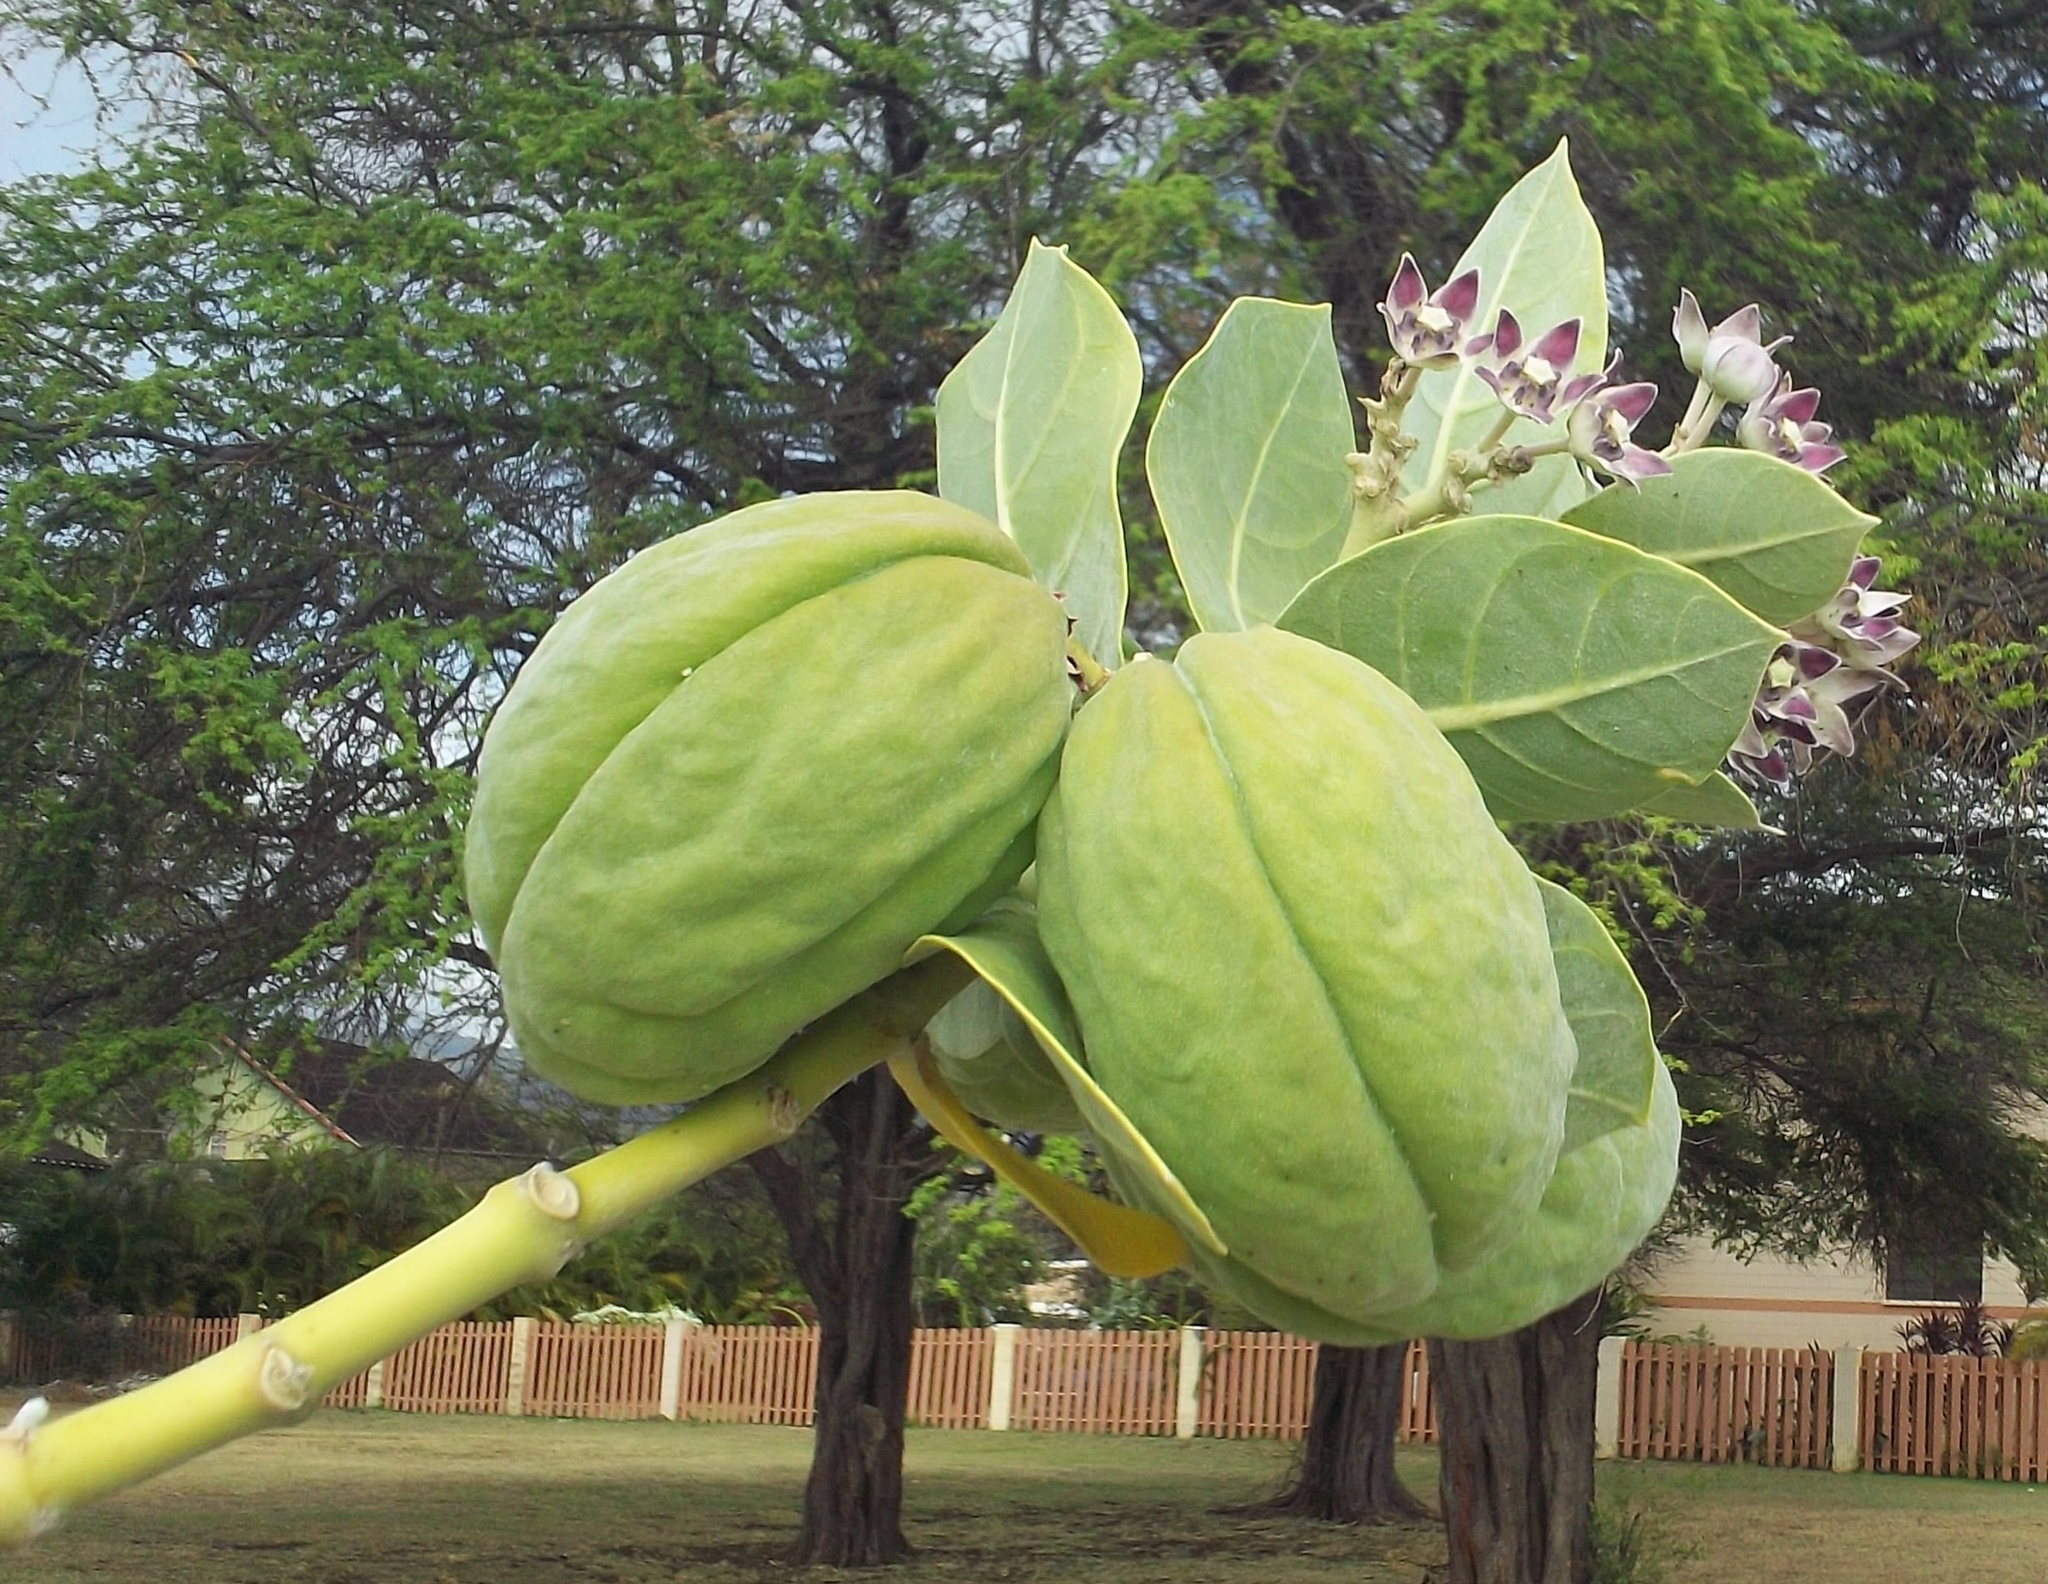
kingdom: Plantae
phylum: Tracheophyta
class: Magnoliopsida
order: Gentianales
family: Apocynaceae
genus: Calotropis
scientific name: Calotropis procera
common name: Roostertree
